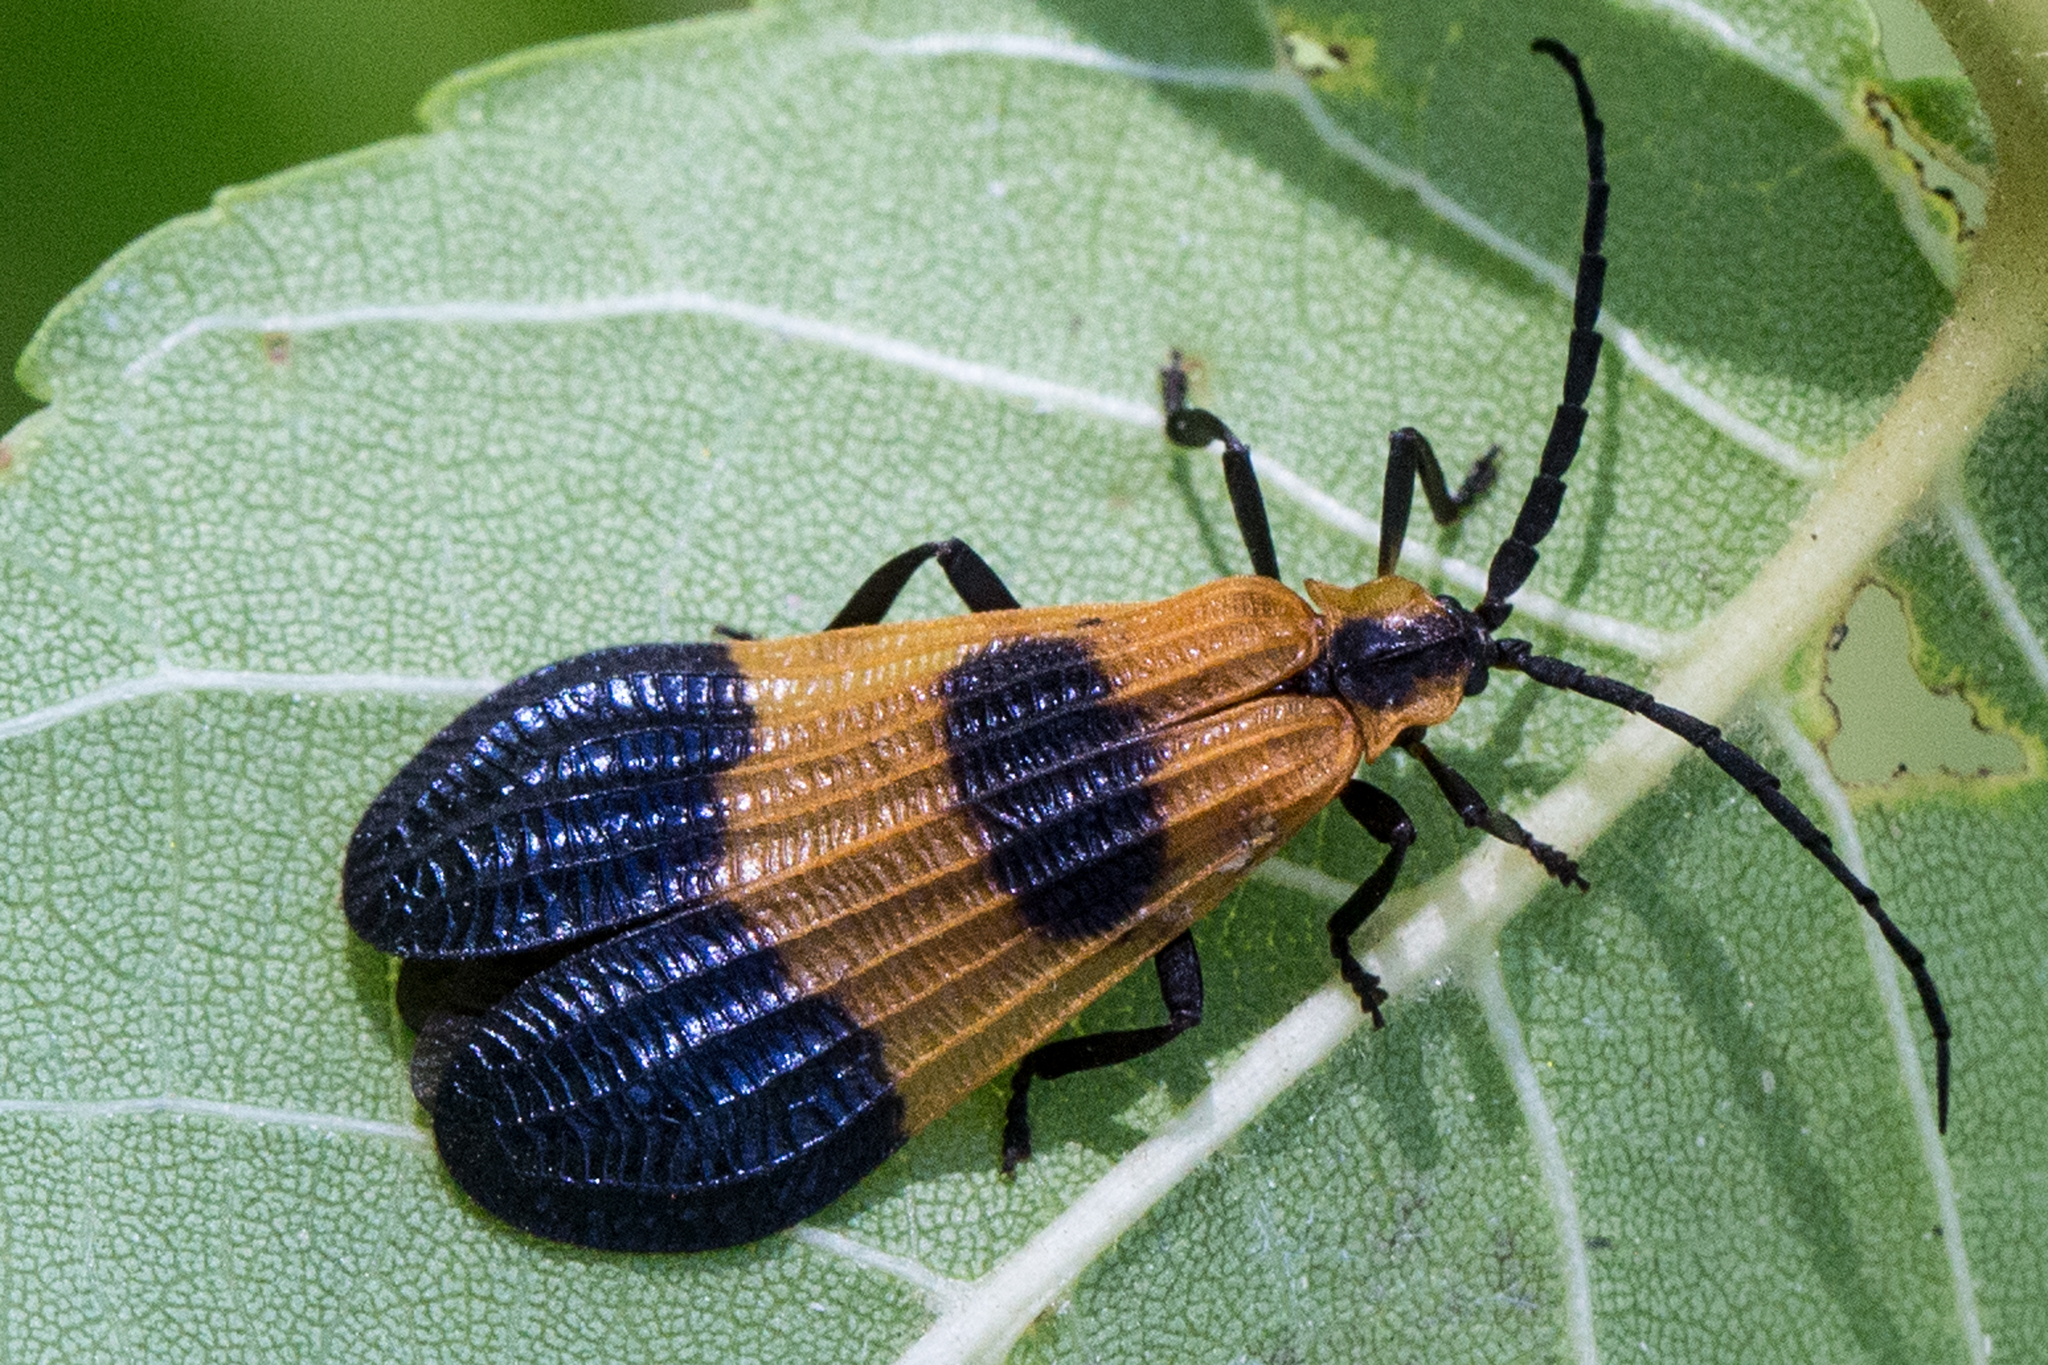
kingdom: Animalia
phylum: Arthropoda
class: Insecta
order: Coleoptera
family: Lycidae
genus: Calopteron
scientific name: Calopteron terminale
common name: End band net-winged beetle
